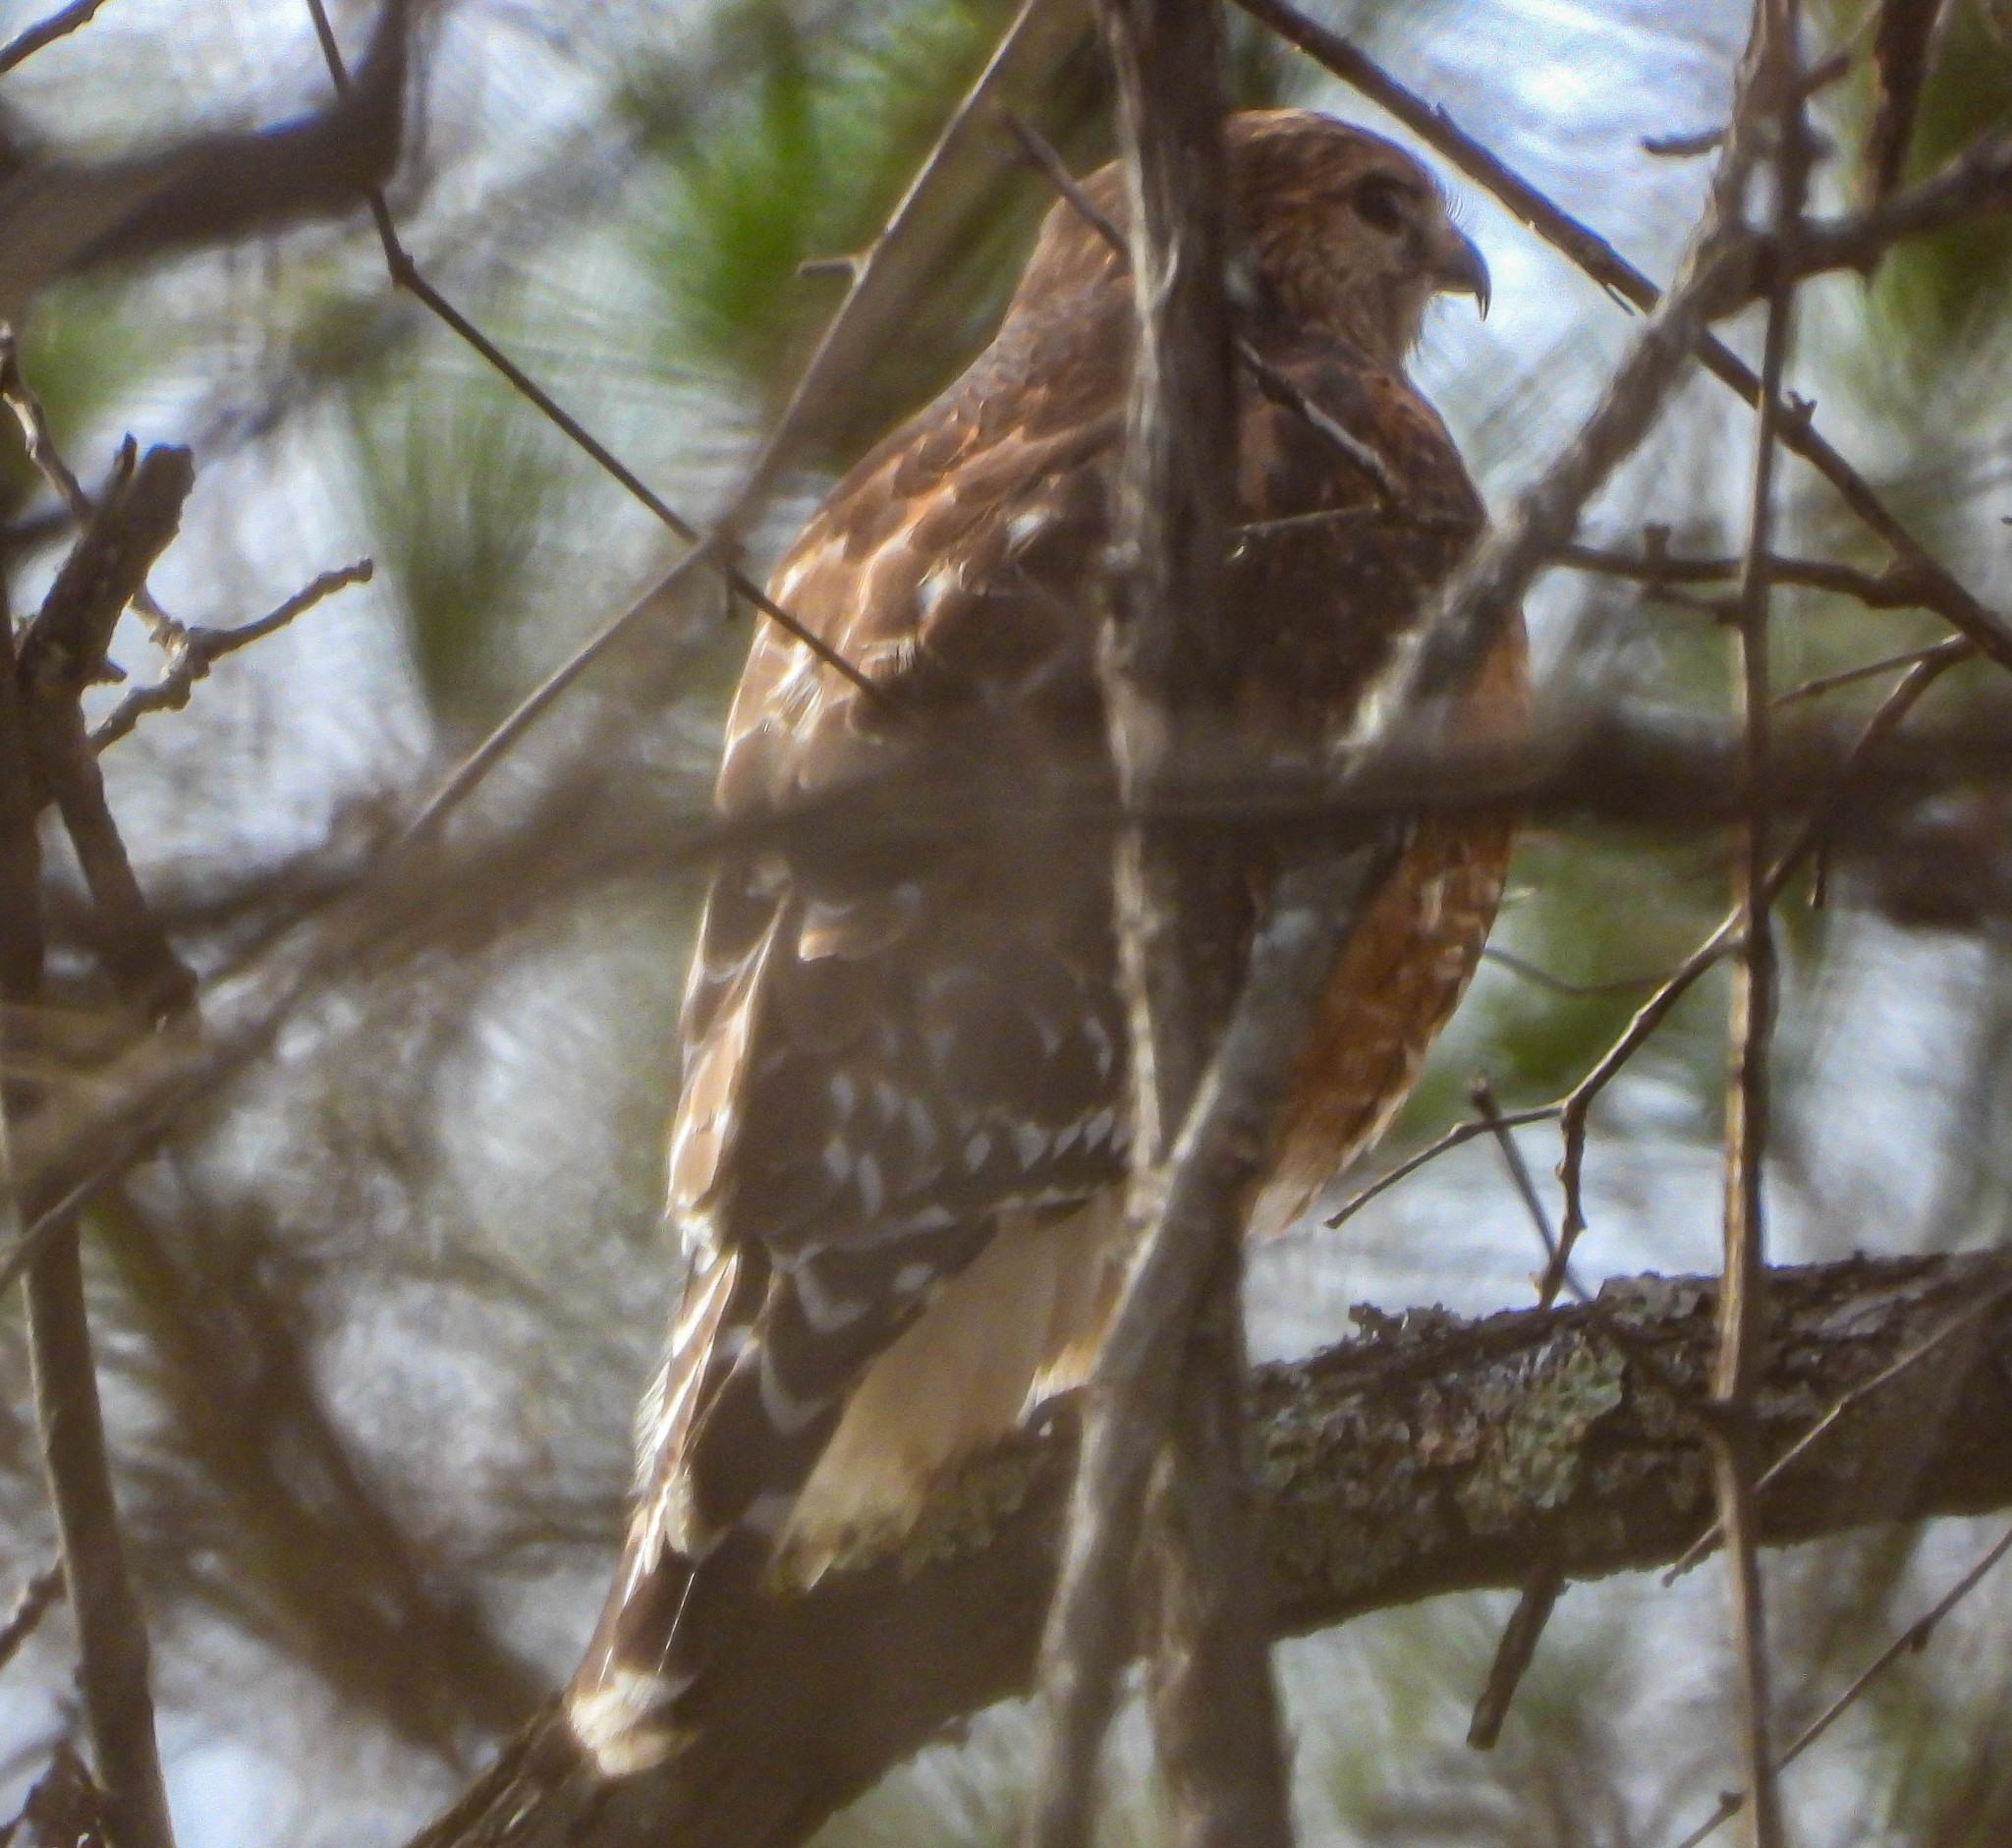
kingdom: Animalia
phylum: Chordata
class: Aves
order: Accipitriformes
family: Accipitridae
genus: Buteo
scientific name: Buteo lineatus
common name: Red-shouldered hawk
